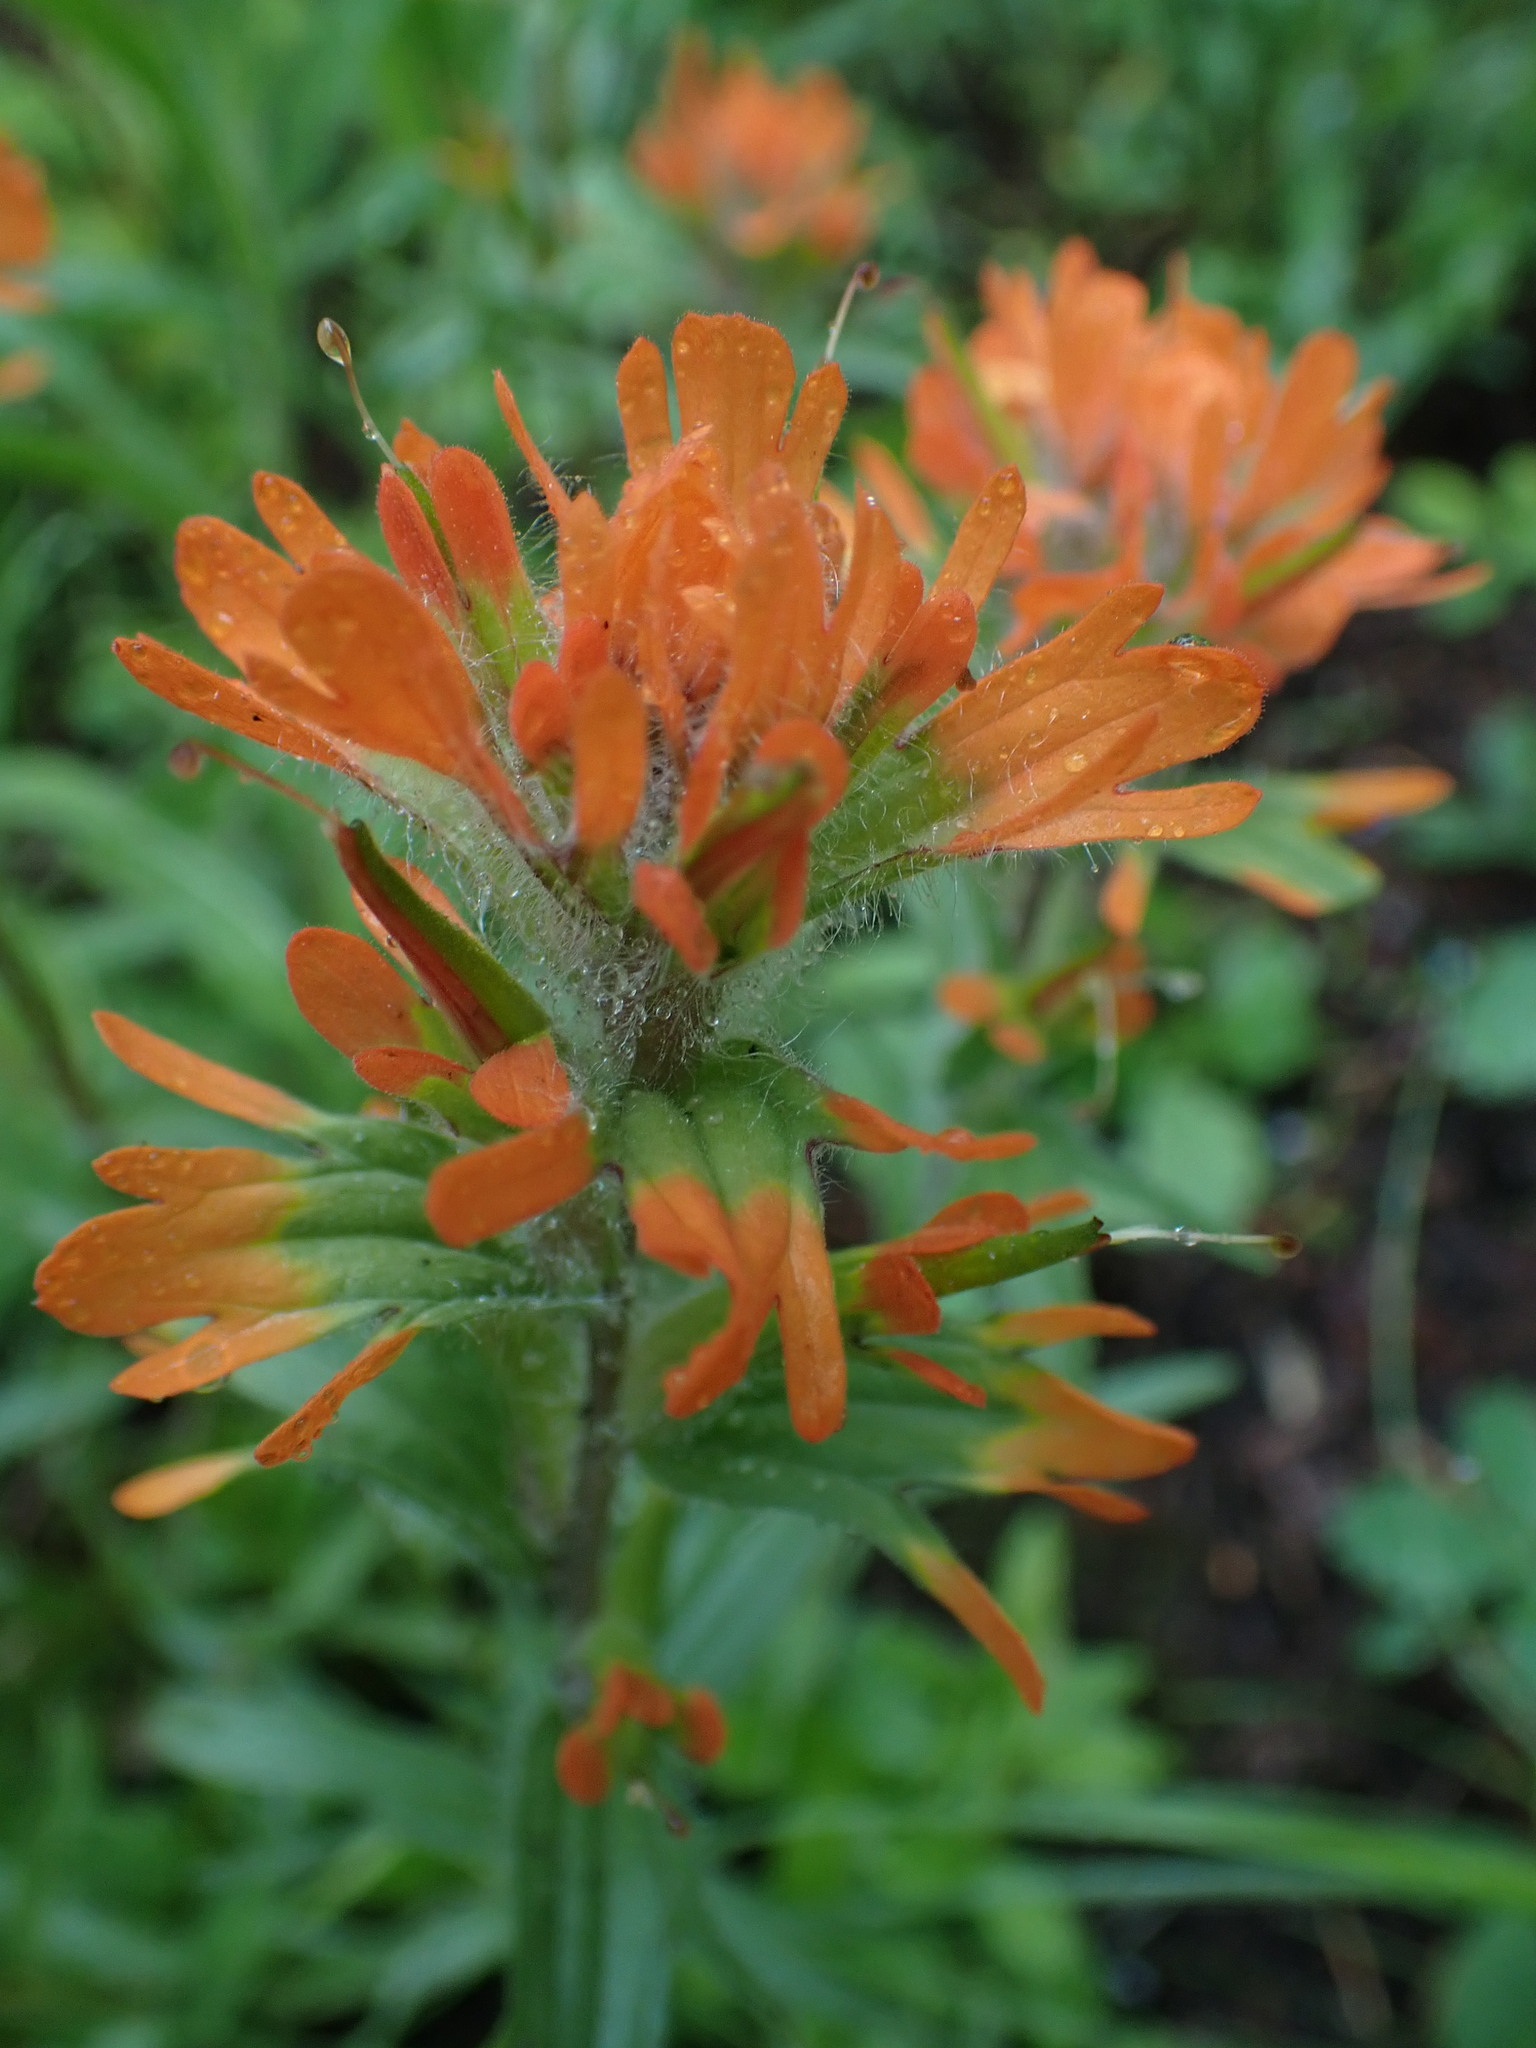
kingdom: Plantae
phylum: Tracheophyta
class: Magnoliopsida
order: Lamiales
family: Orobanchaceae
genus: Castilleja
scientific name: Castilleja hispida
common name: Bristly paintbrush
